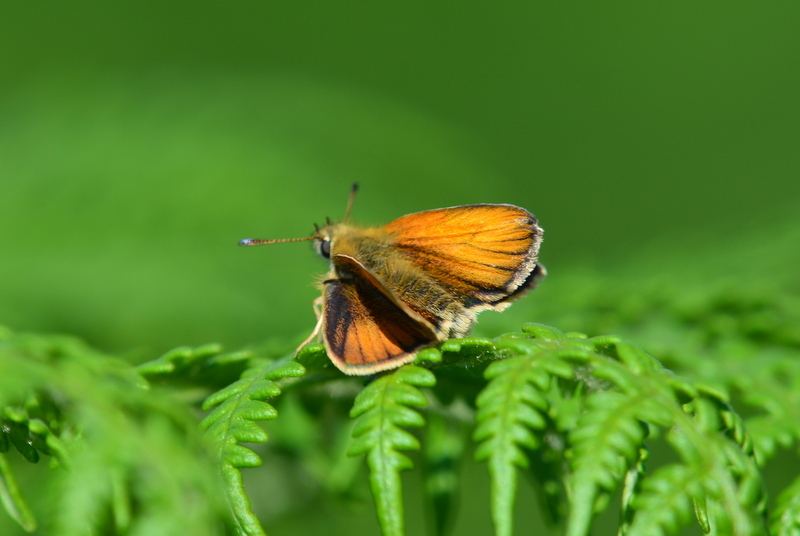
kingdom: Animalia
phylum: Arthropoda
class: Insecta
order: Lepidoptera
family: Hesperiidae
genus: Thymelicus
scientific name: Thymelicus
